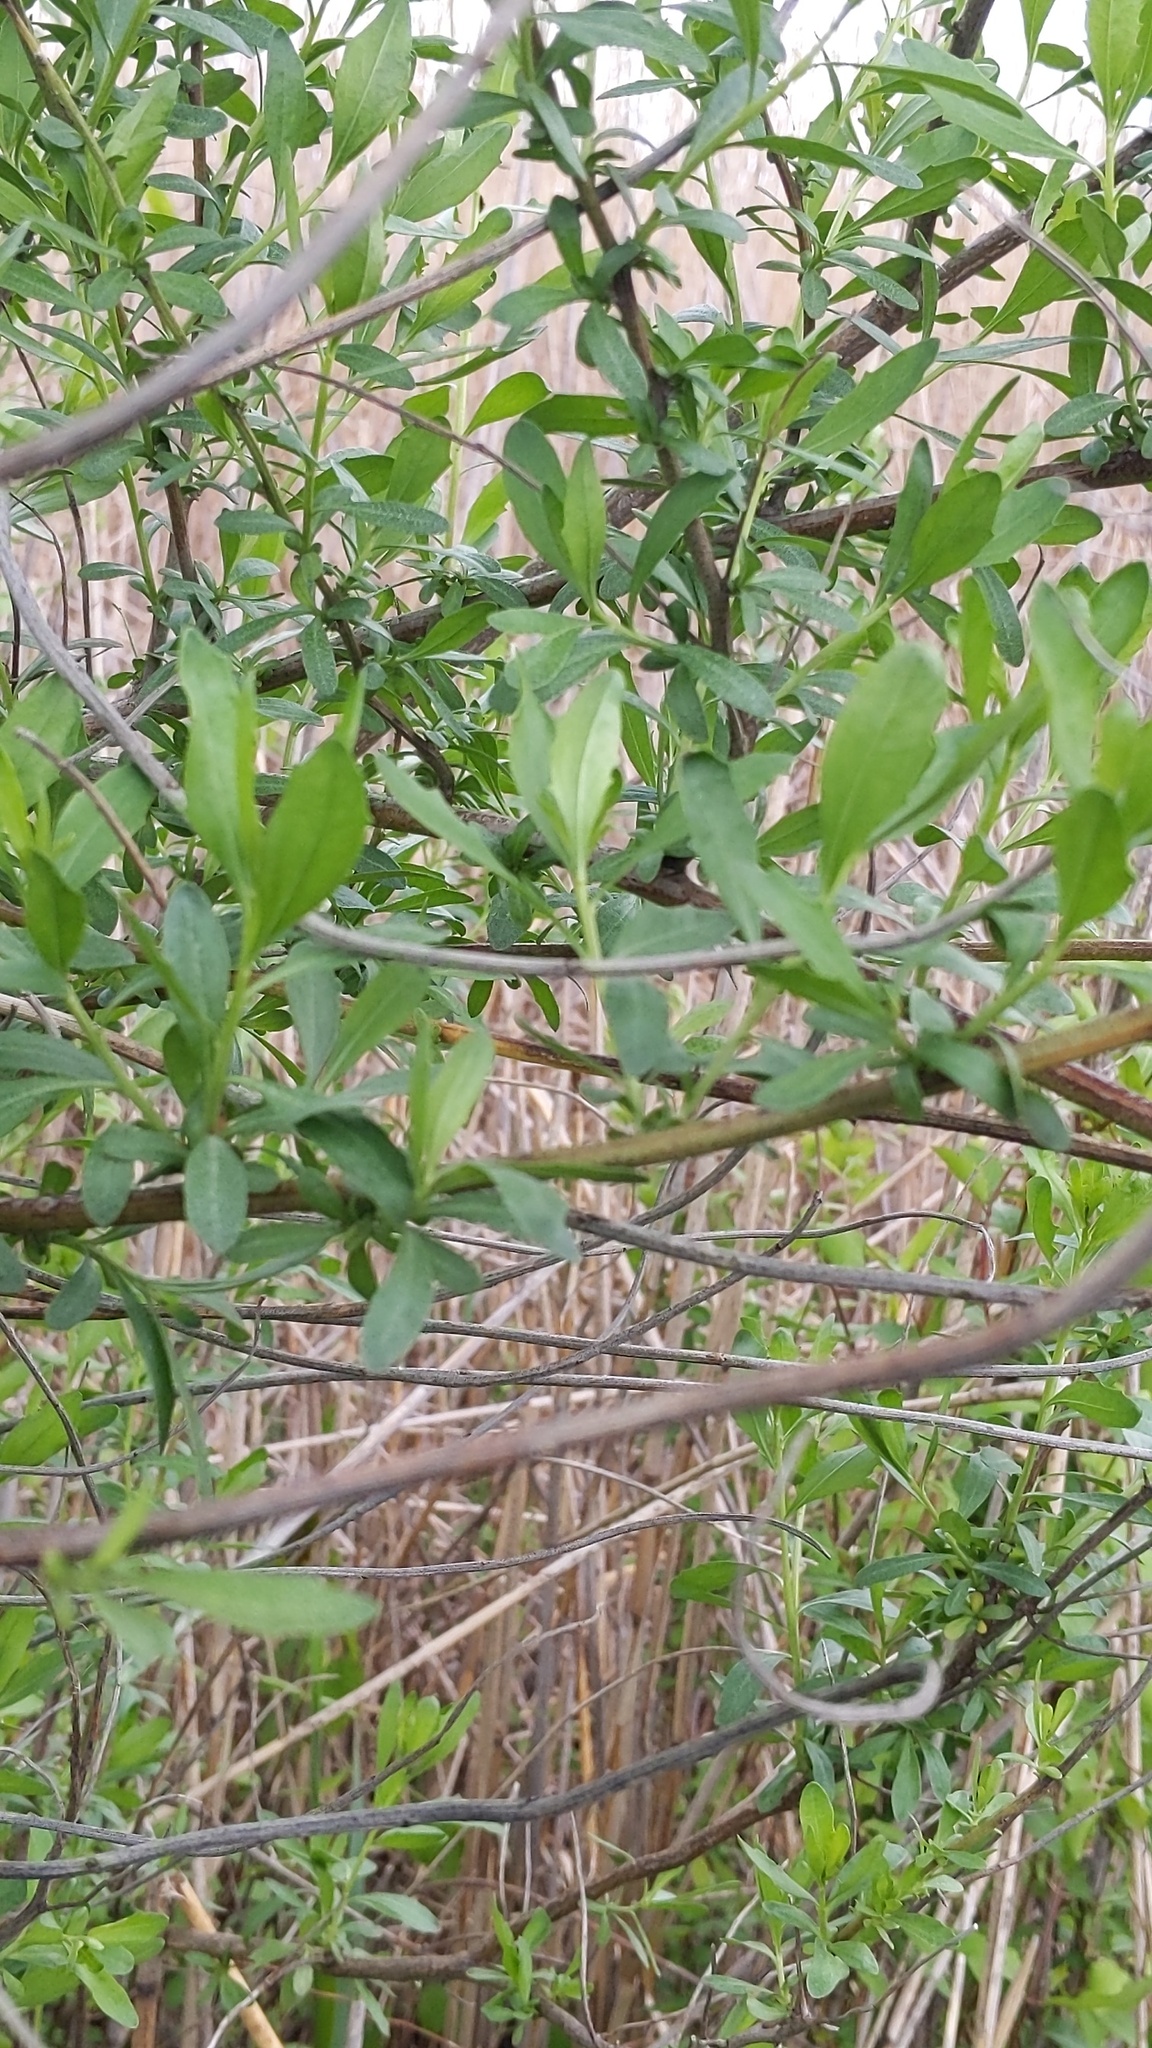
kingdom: Plantae
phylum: Tracheophyta
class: Magnoliopsida
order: Asterales
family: Asteraceae
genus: Baccharis
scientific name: Baccharis halimifolia
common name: Eastern baccharis
